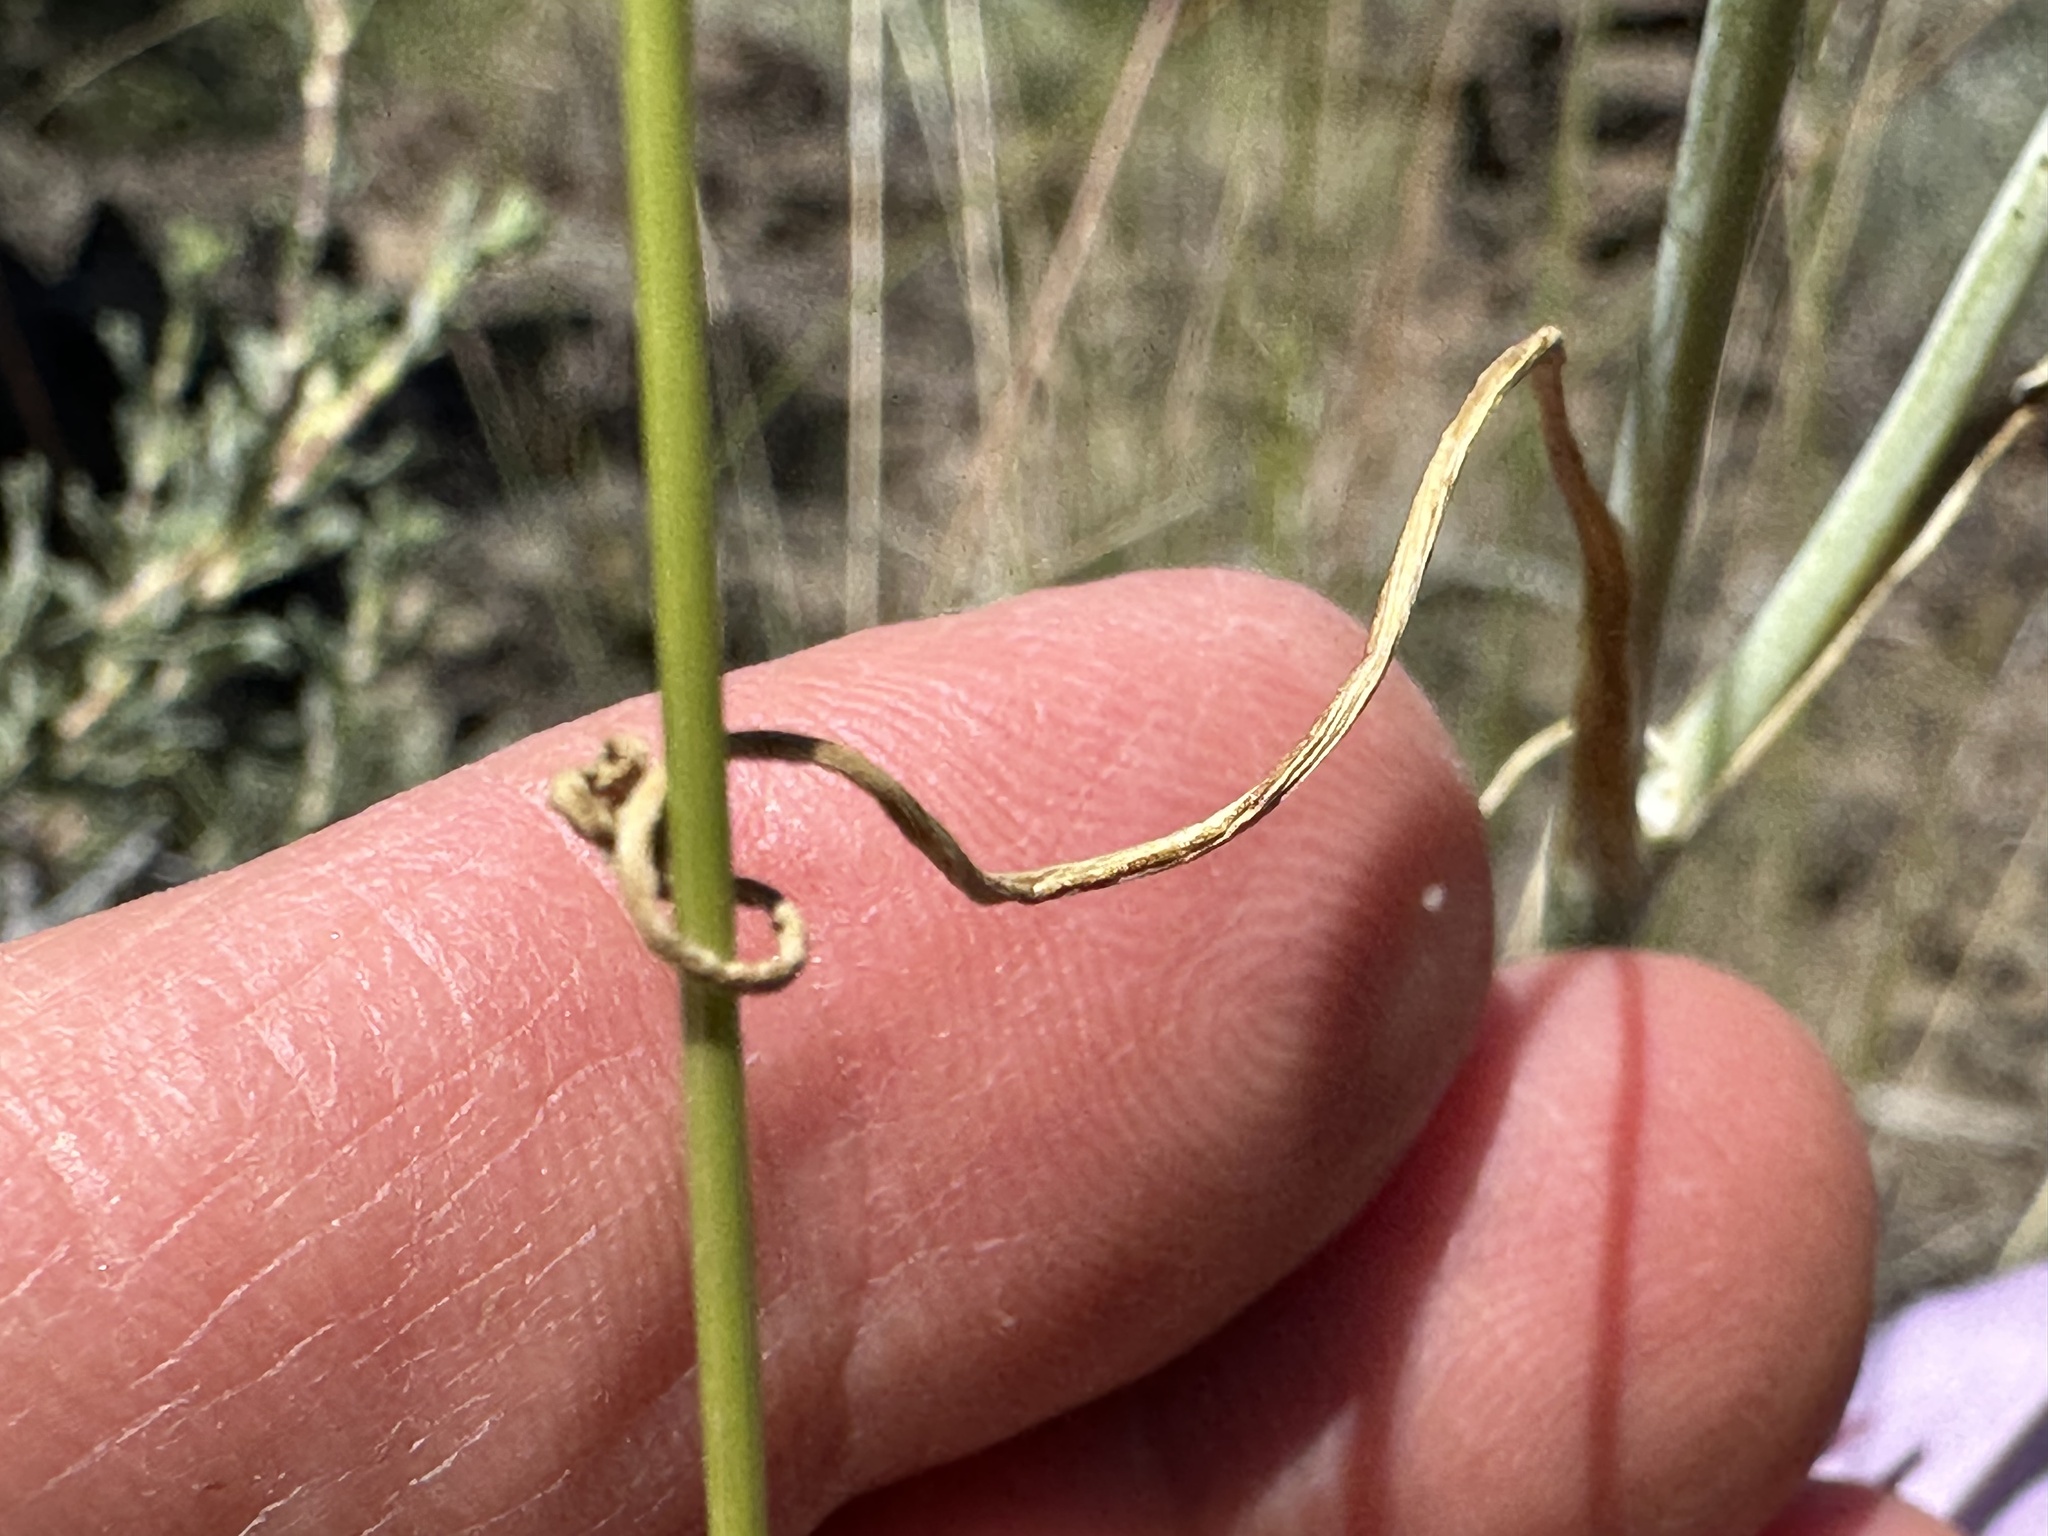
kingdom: Plantae
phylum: Tracheophyta
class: Liliopsida
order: Liliales
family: Liliaceae
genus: Calochortus
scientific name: Calochortus macrocarpus
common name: Green-band mariposa lily
